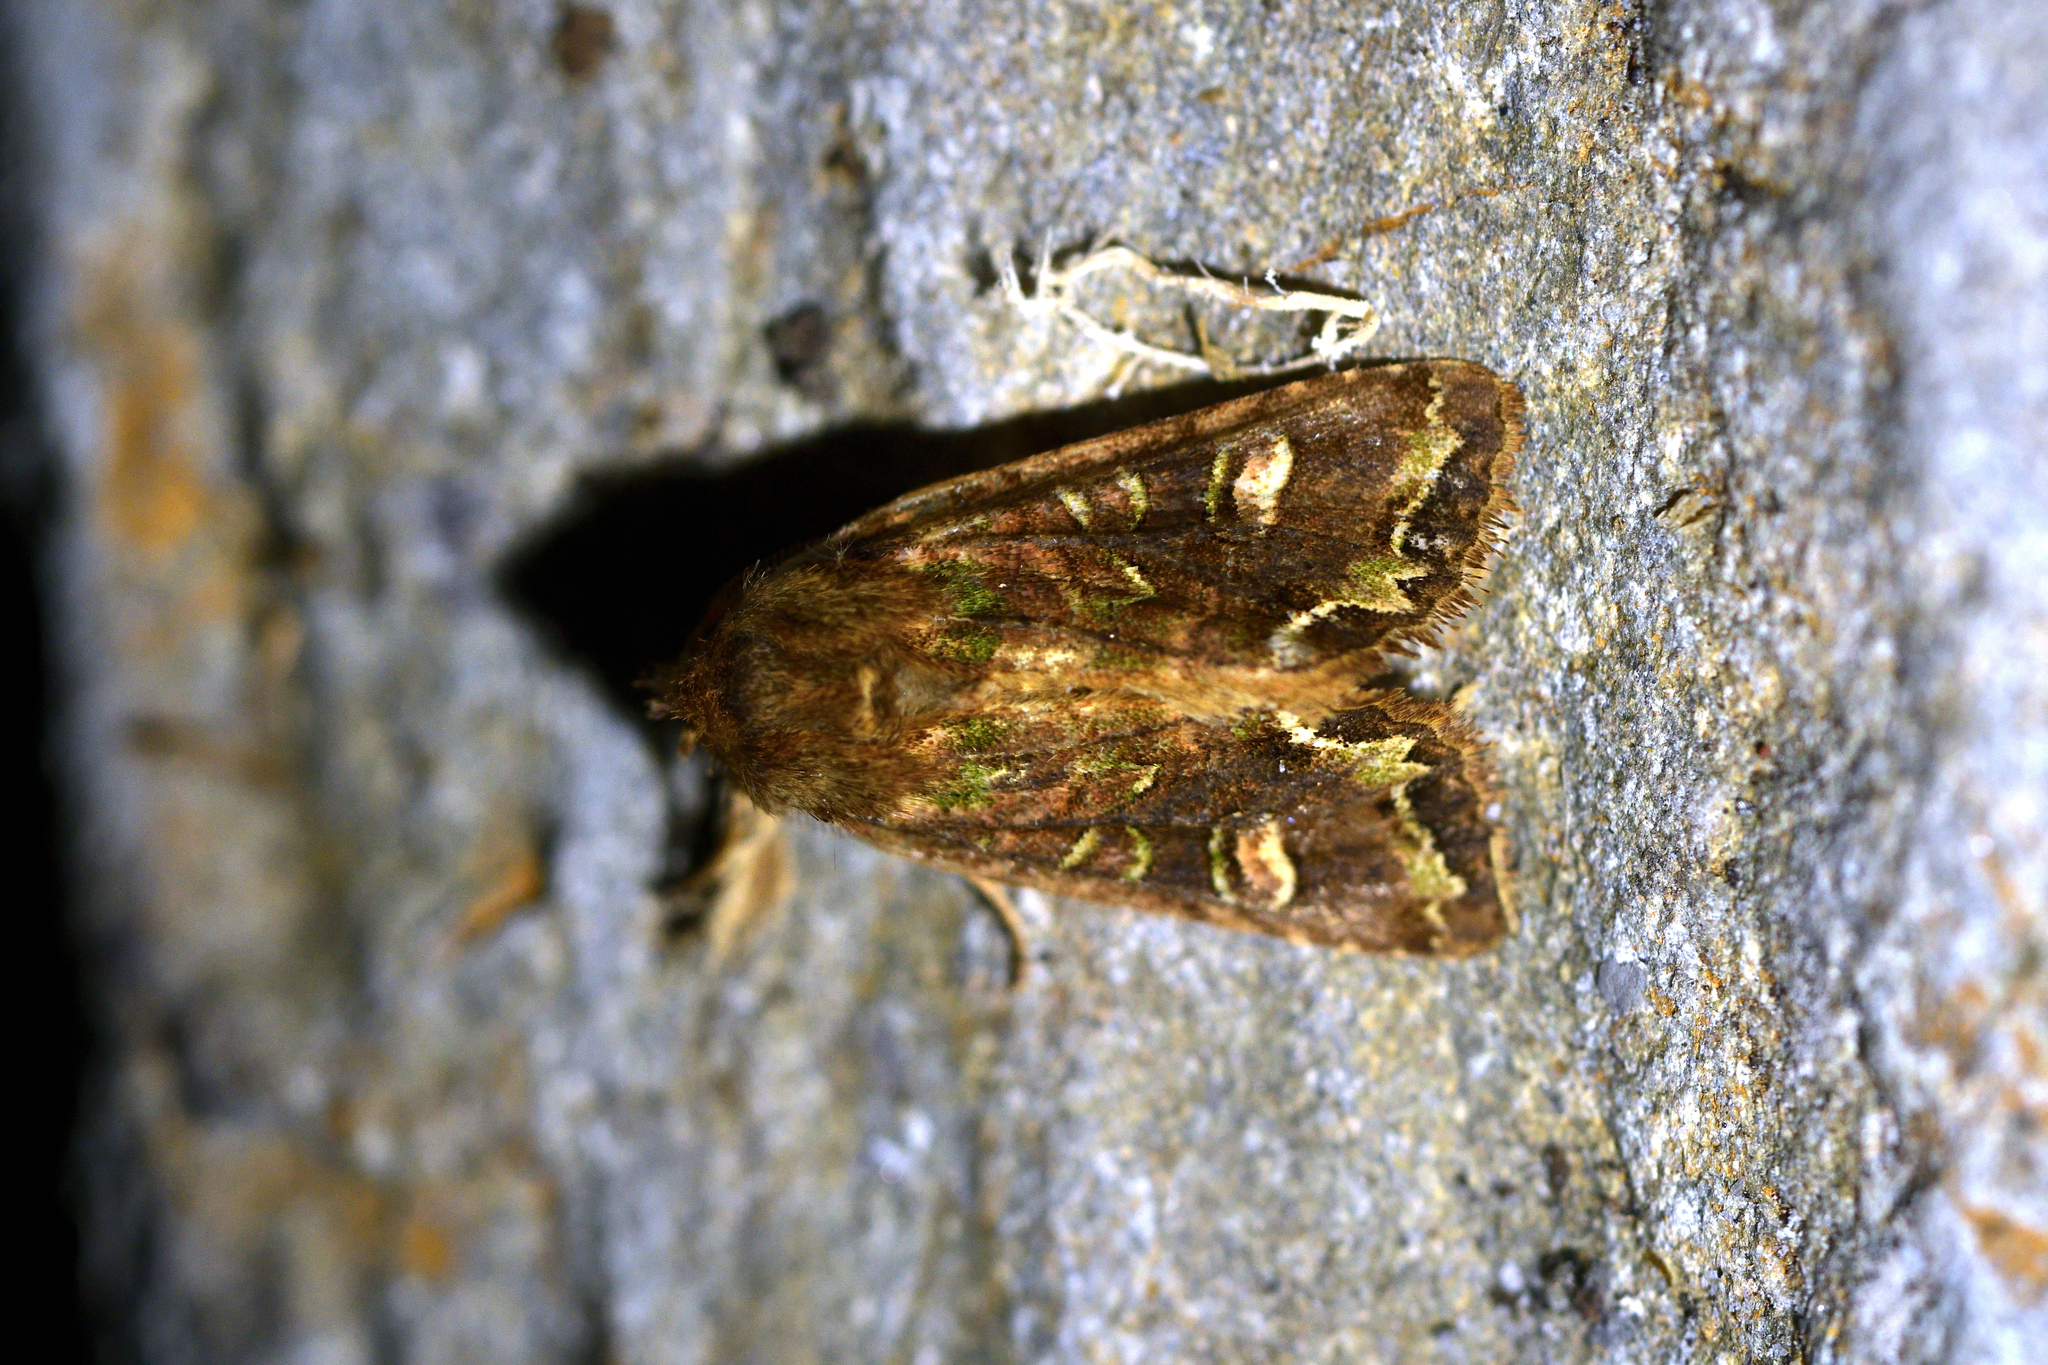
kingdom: Animalia
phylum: Arthropoda
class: Insecta
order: Lepidoptera
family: Noctuidae
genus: Ichneutica
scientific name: Ichneutica skelloni
